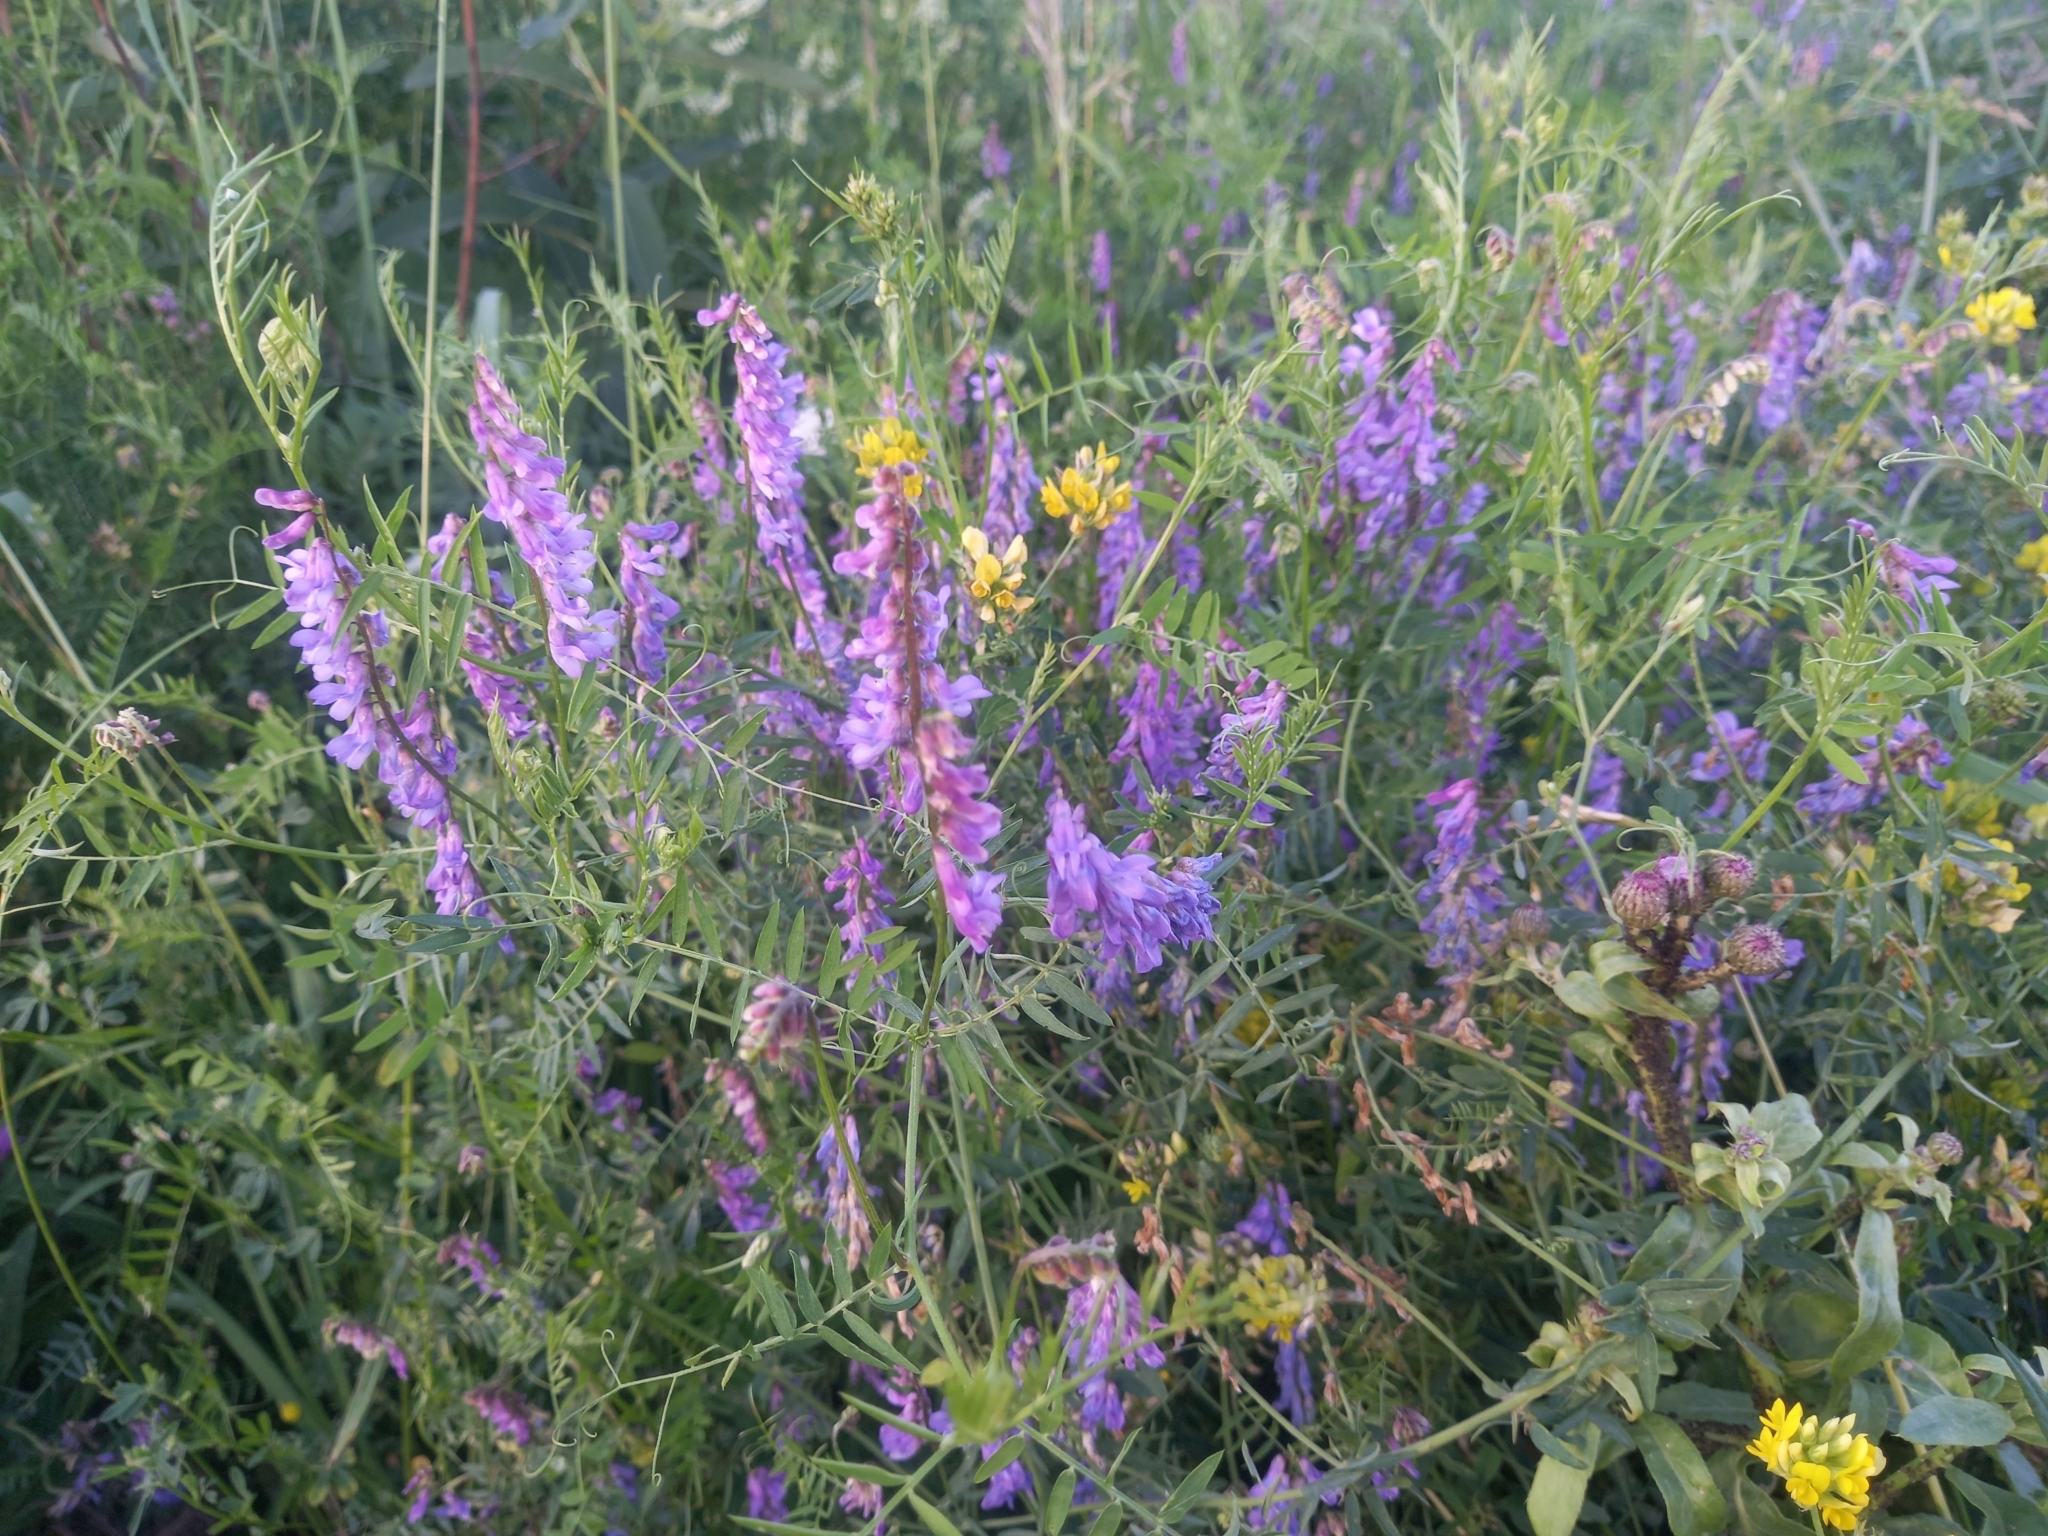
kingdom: Plantae
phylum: Tracheophyta
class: Magnoliopsida
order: Fabales
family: Fabaceae
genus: Vicia
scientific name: Vicia cracca
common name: Bird vetch
